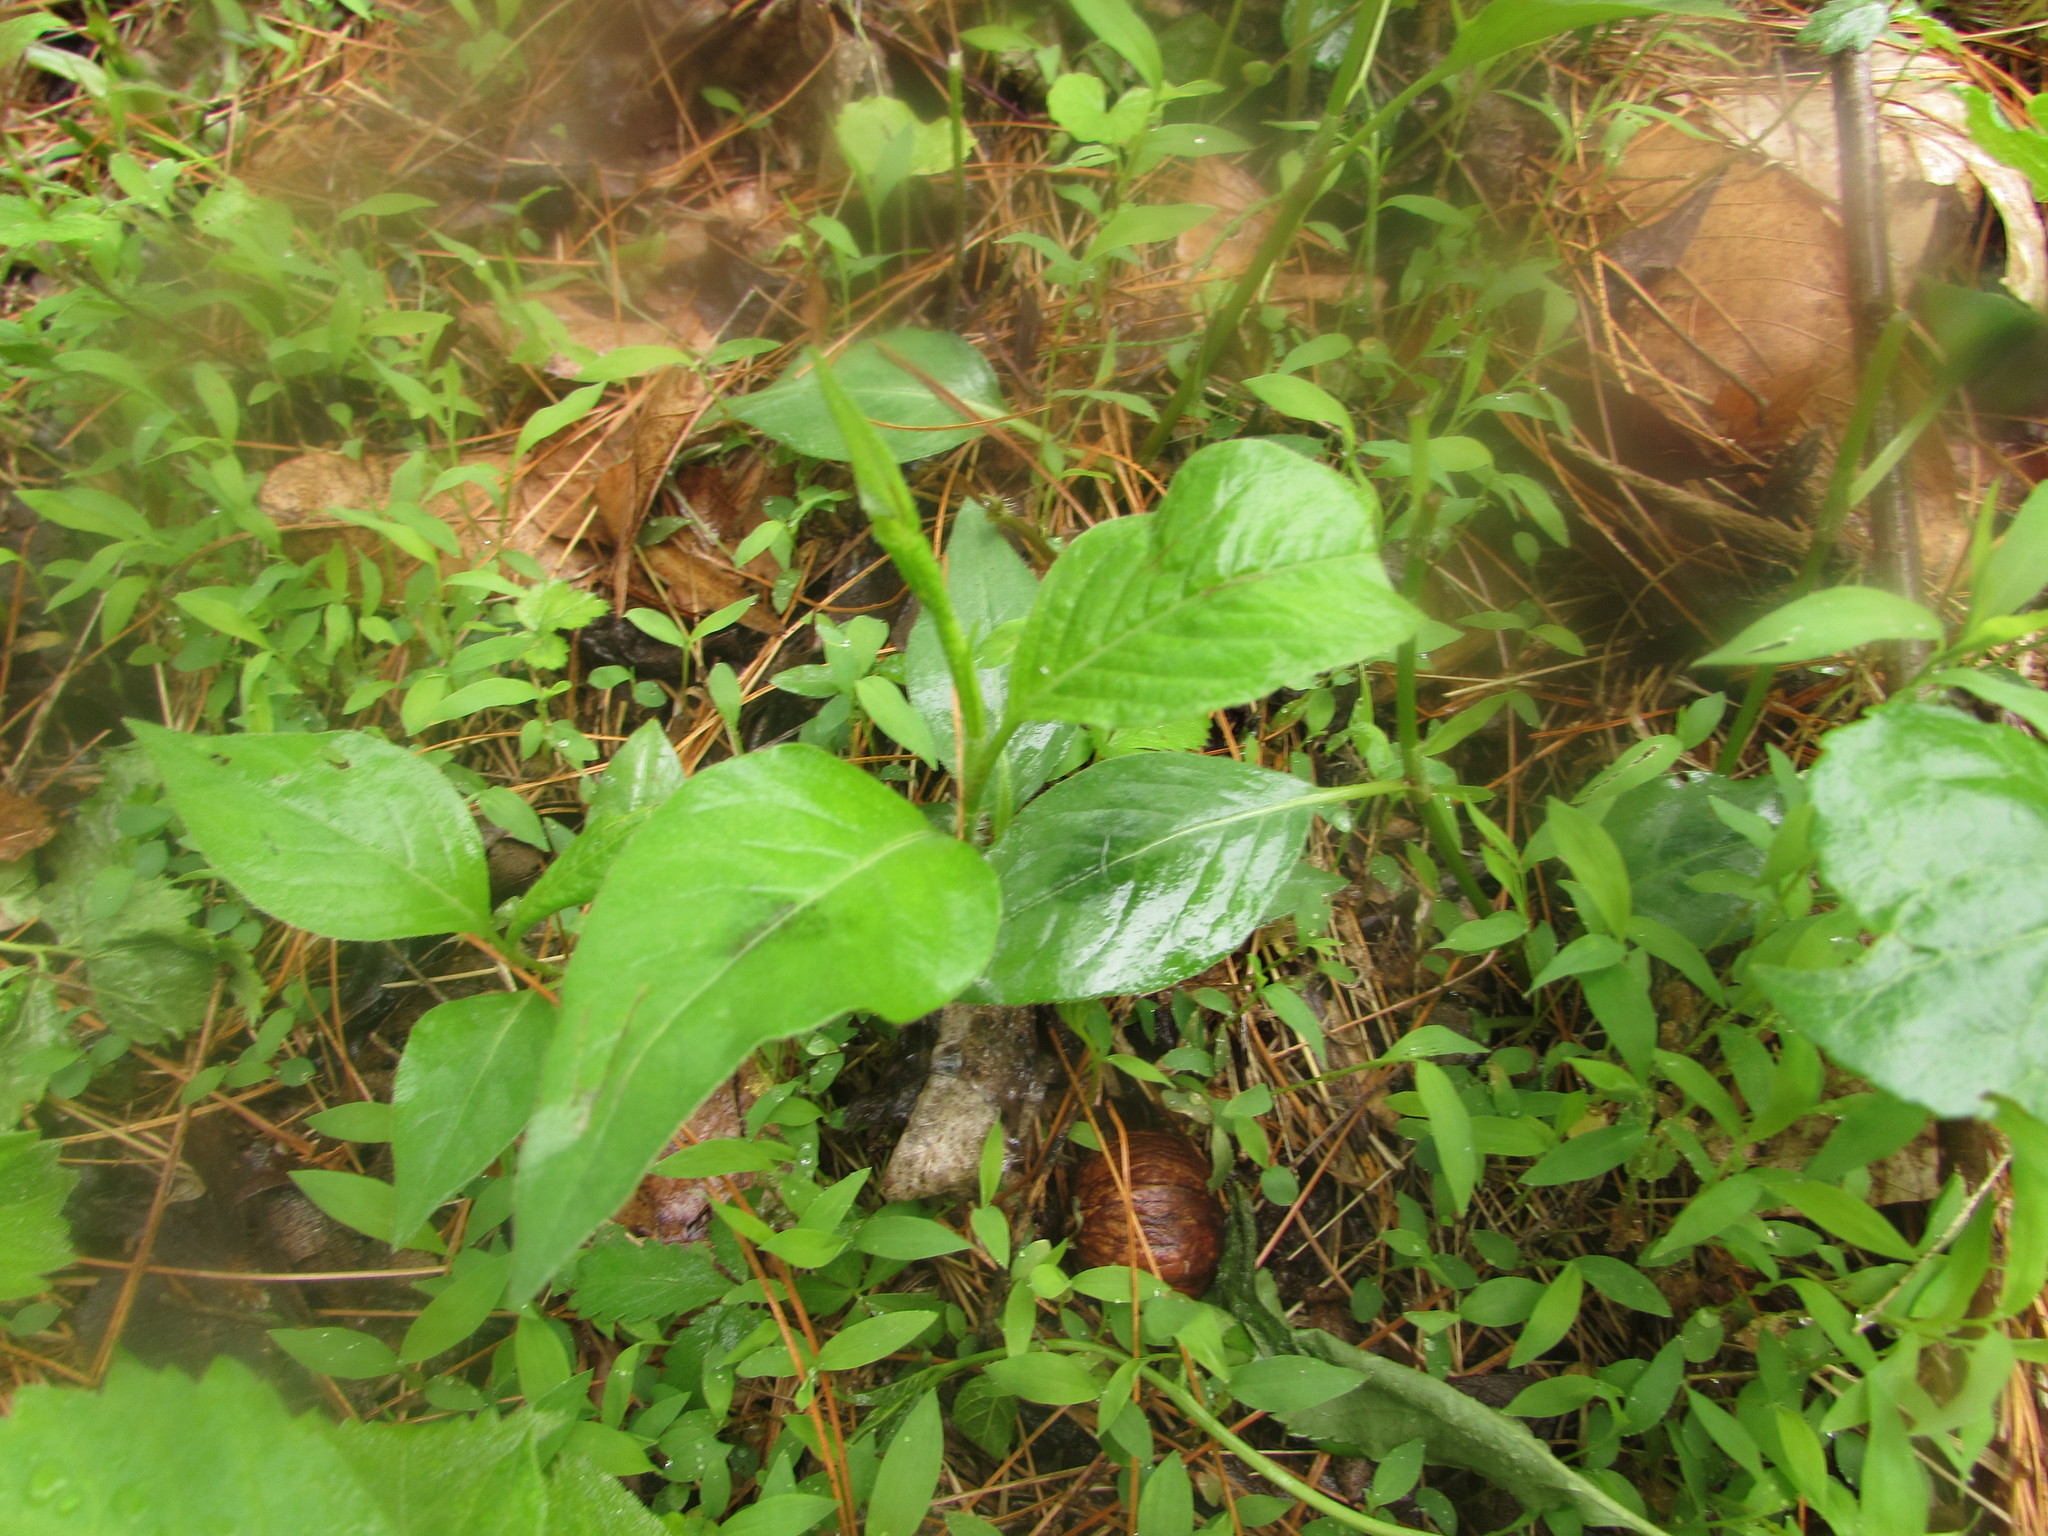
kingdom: Plantae
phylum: Tracheophyta
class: Magnoliopsida
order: Caryophyllales
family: Polygonaceae
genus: Persicaria
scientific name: Persicaria virginiana
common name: Jumpseed
